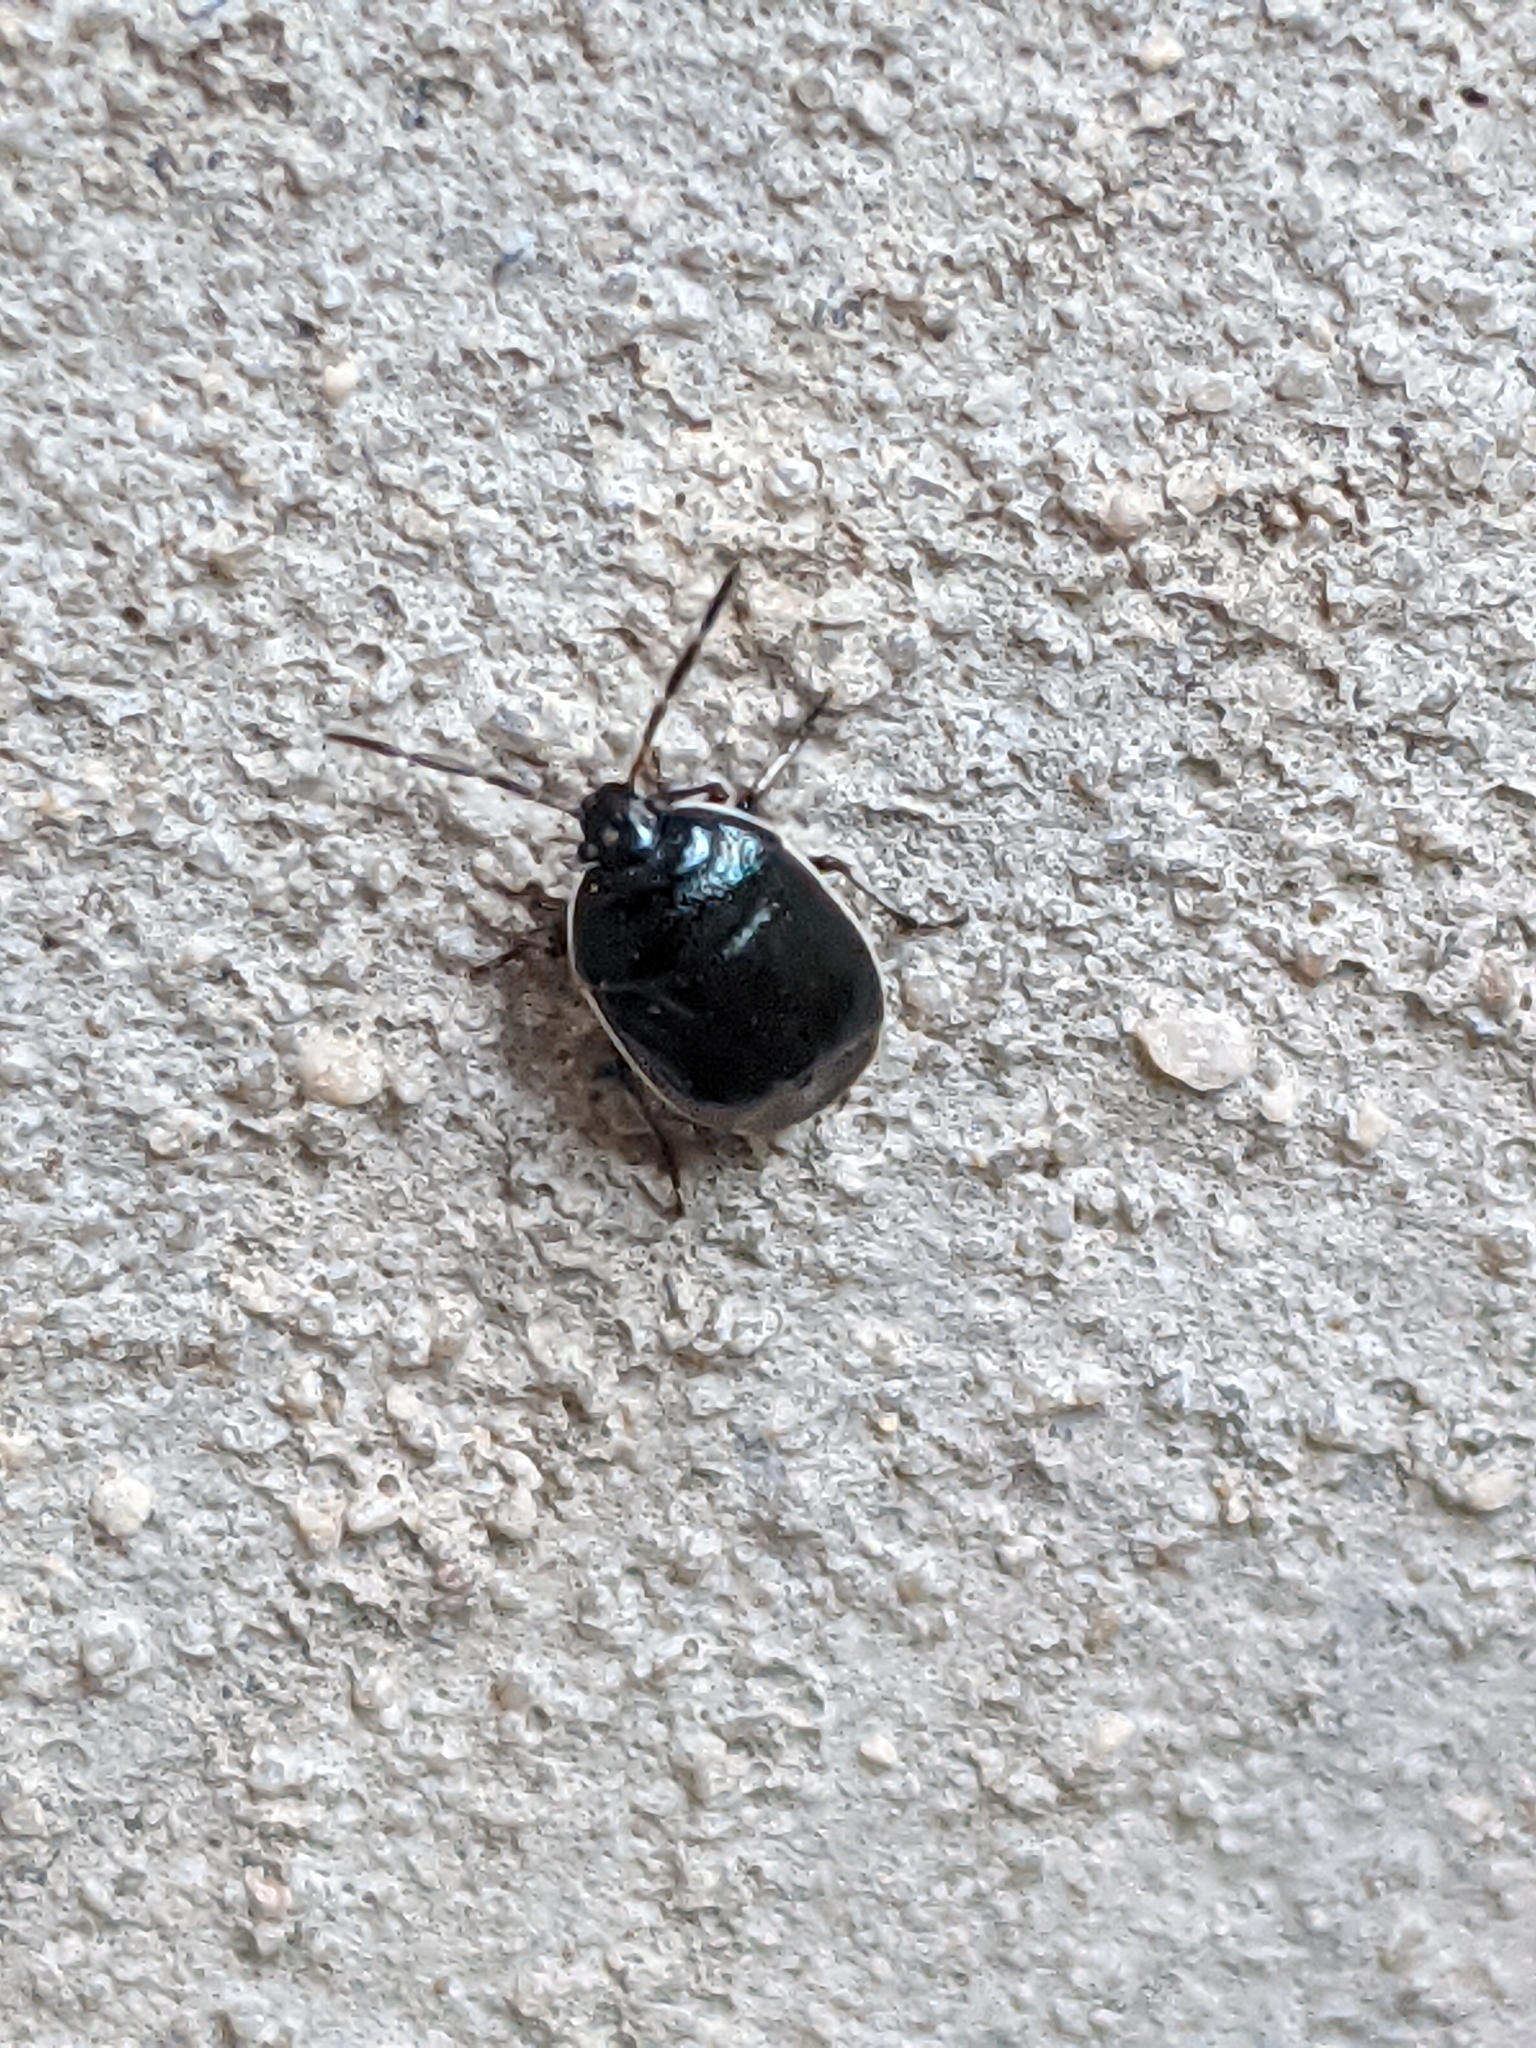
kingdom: Animalia
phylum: Arthropoda
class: Insecta
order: Hemiptera
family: Cydnidae
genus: Sehirus
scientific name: Sehirus cinctus
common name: White-margined burrower bug
